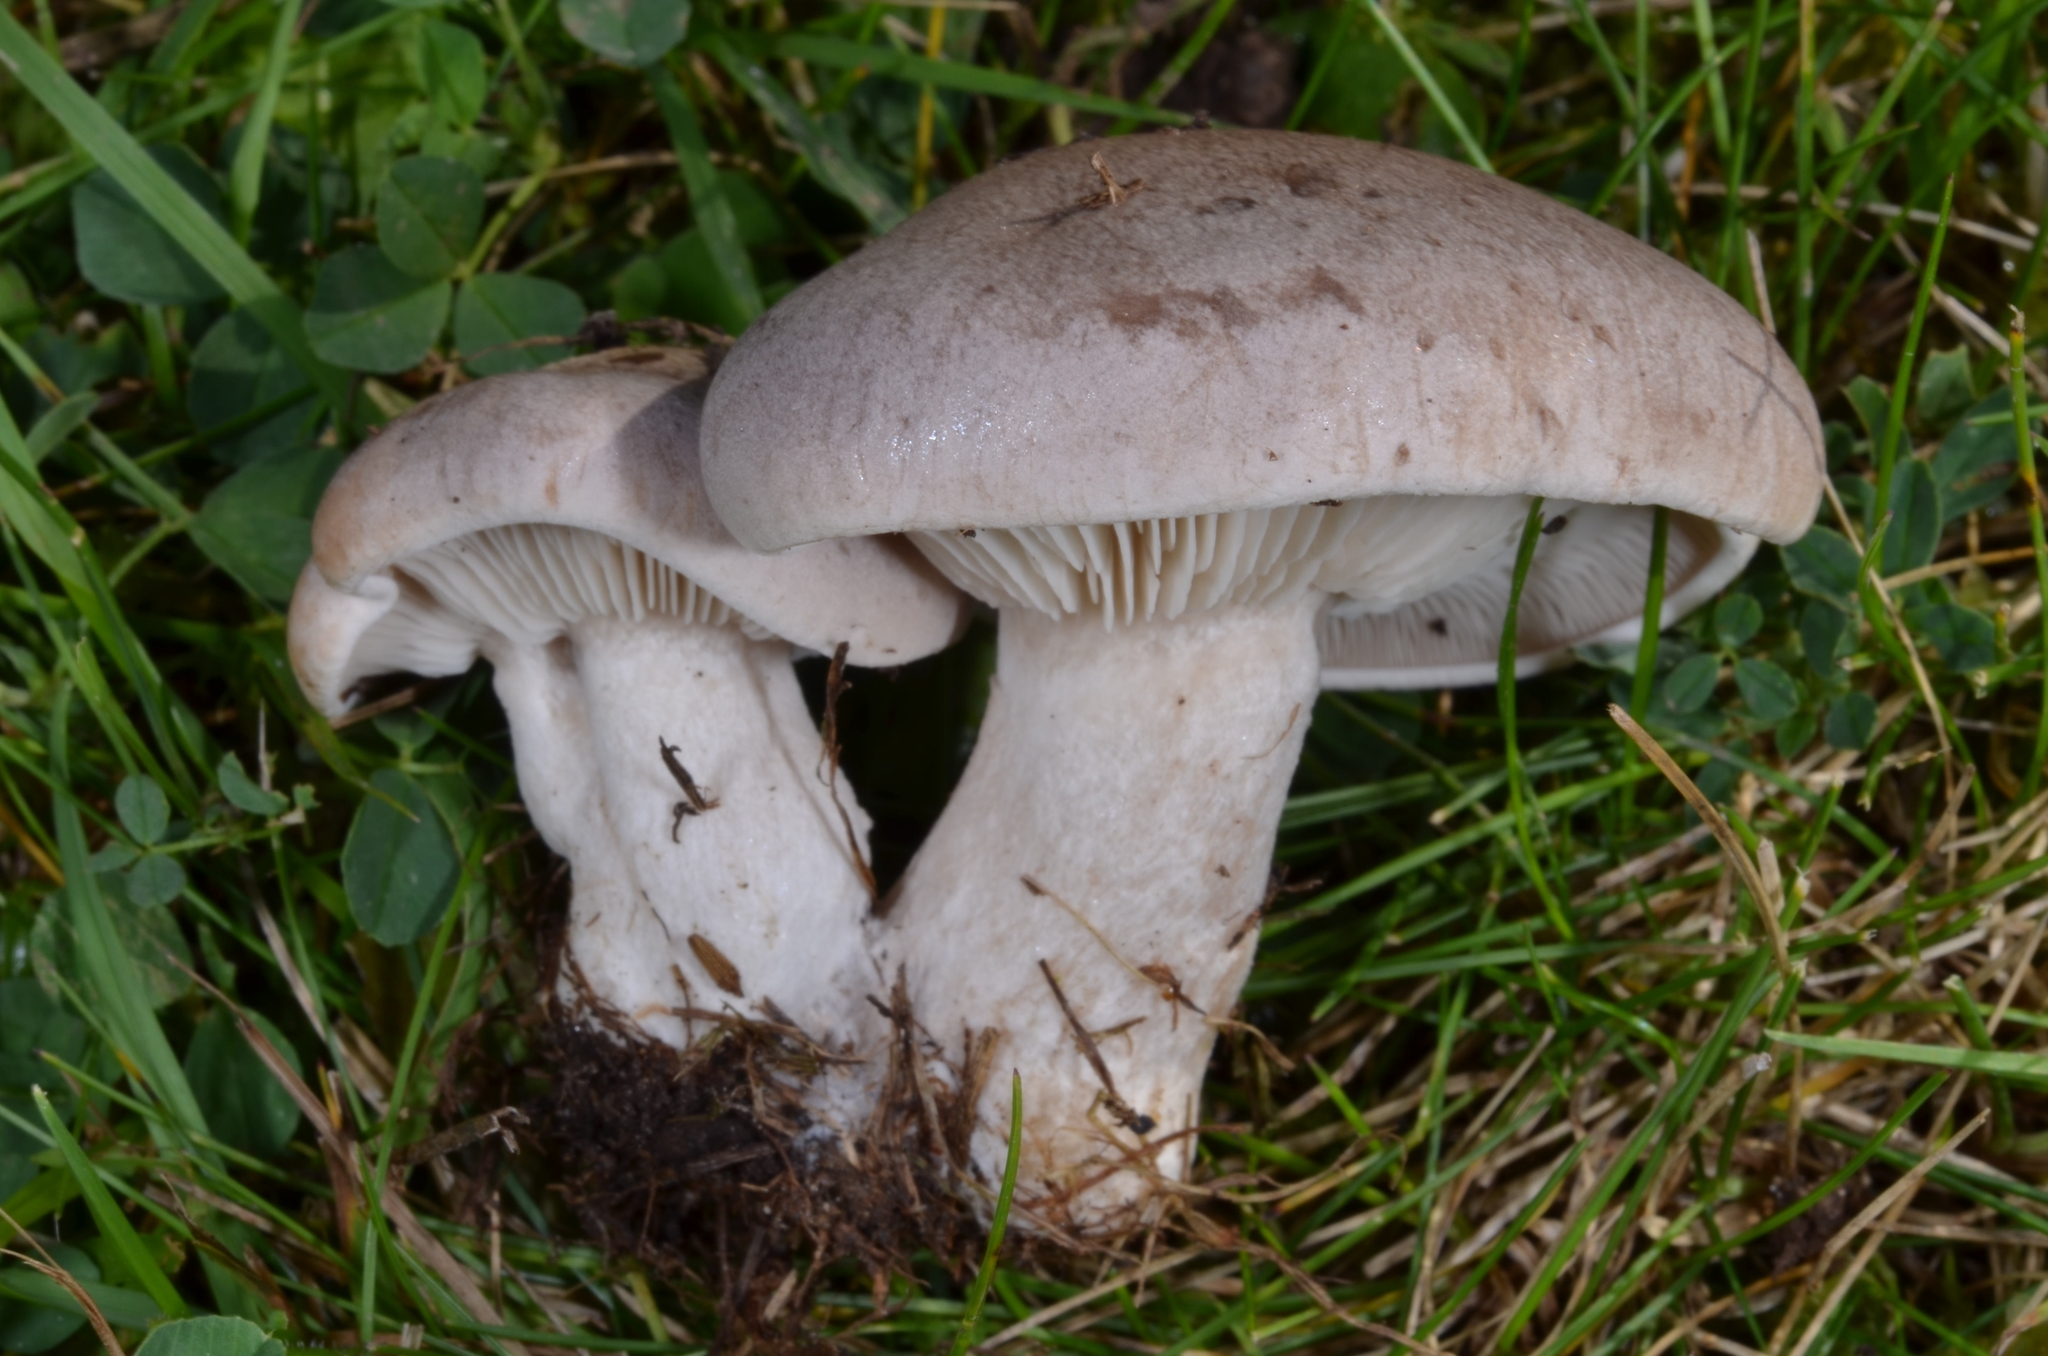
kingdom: Fungi
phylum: Basidiomycota
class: Agaricomycetes
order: Agaricales
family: Lyophyllaceae
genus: Calocybe
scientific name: Calocybe carnea
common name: Pink domecap
